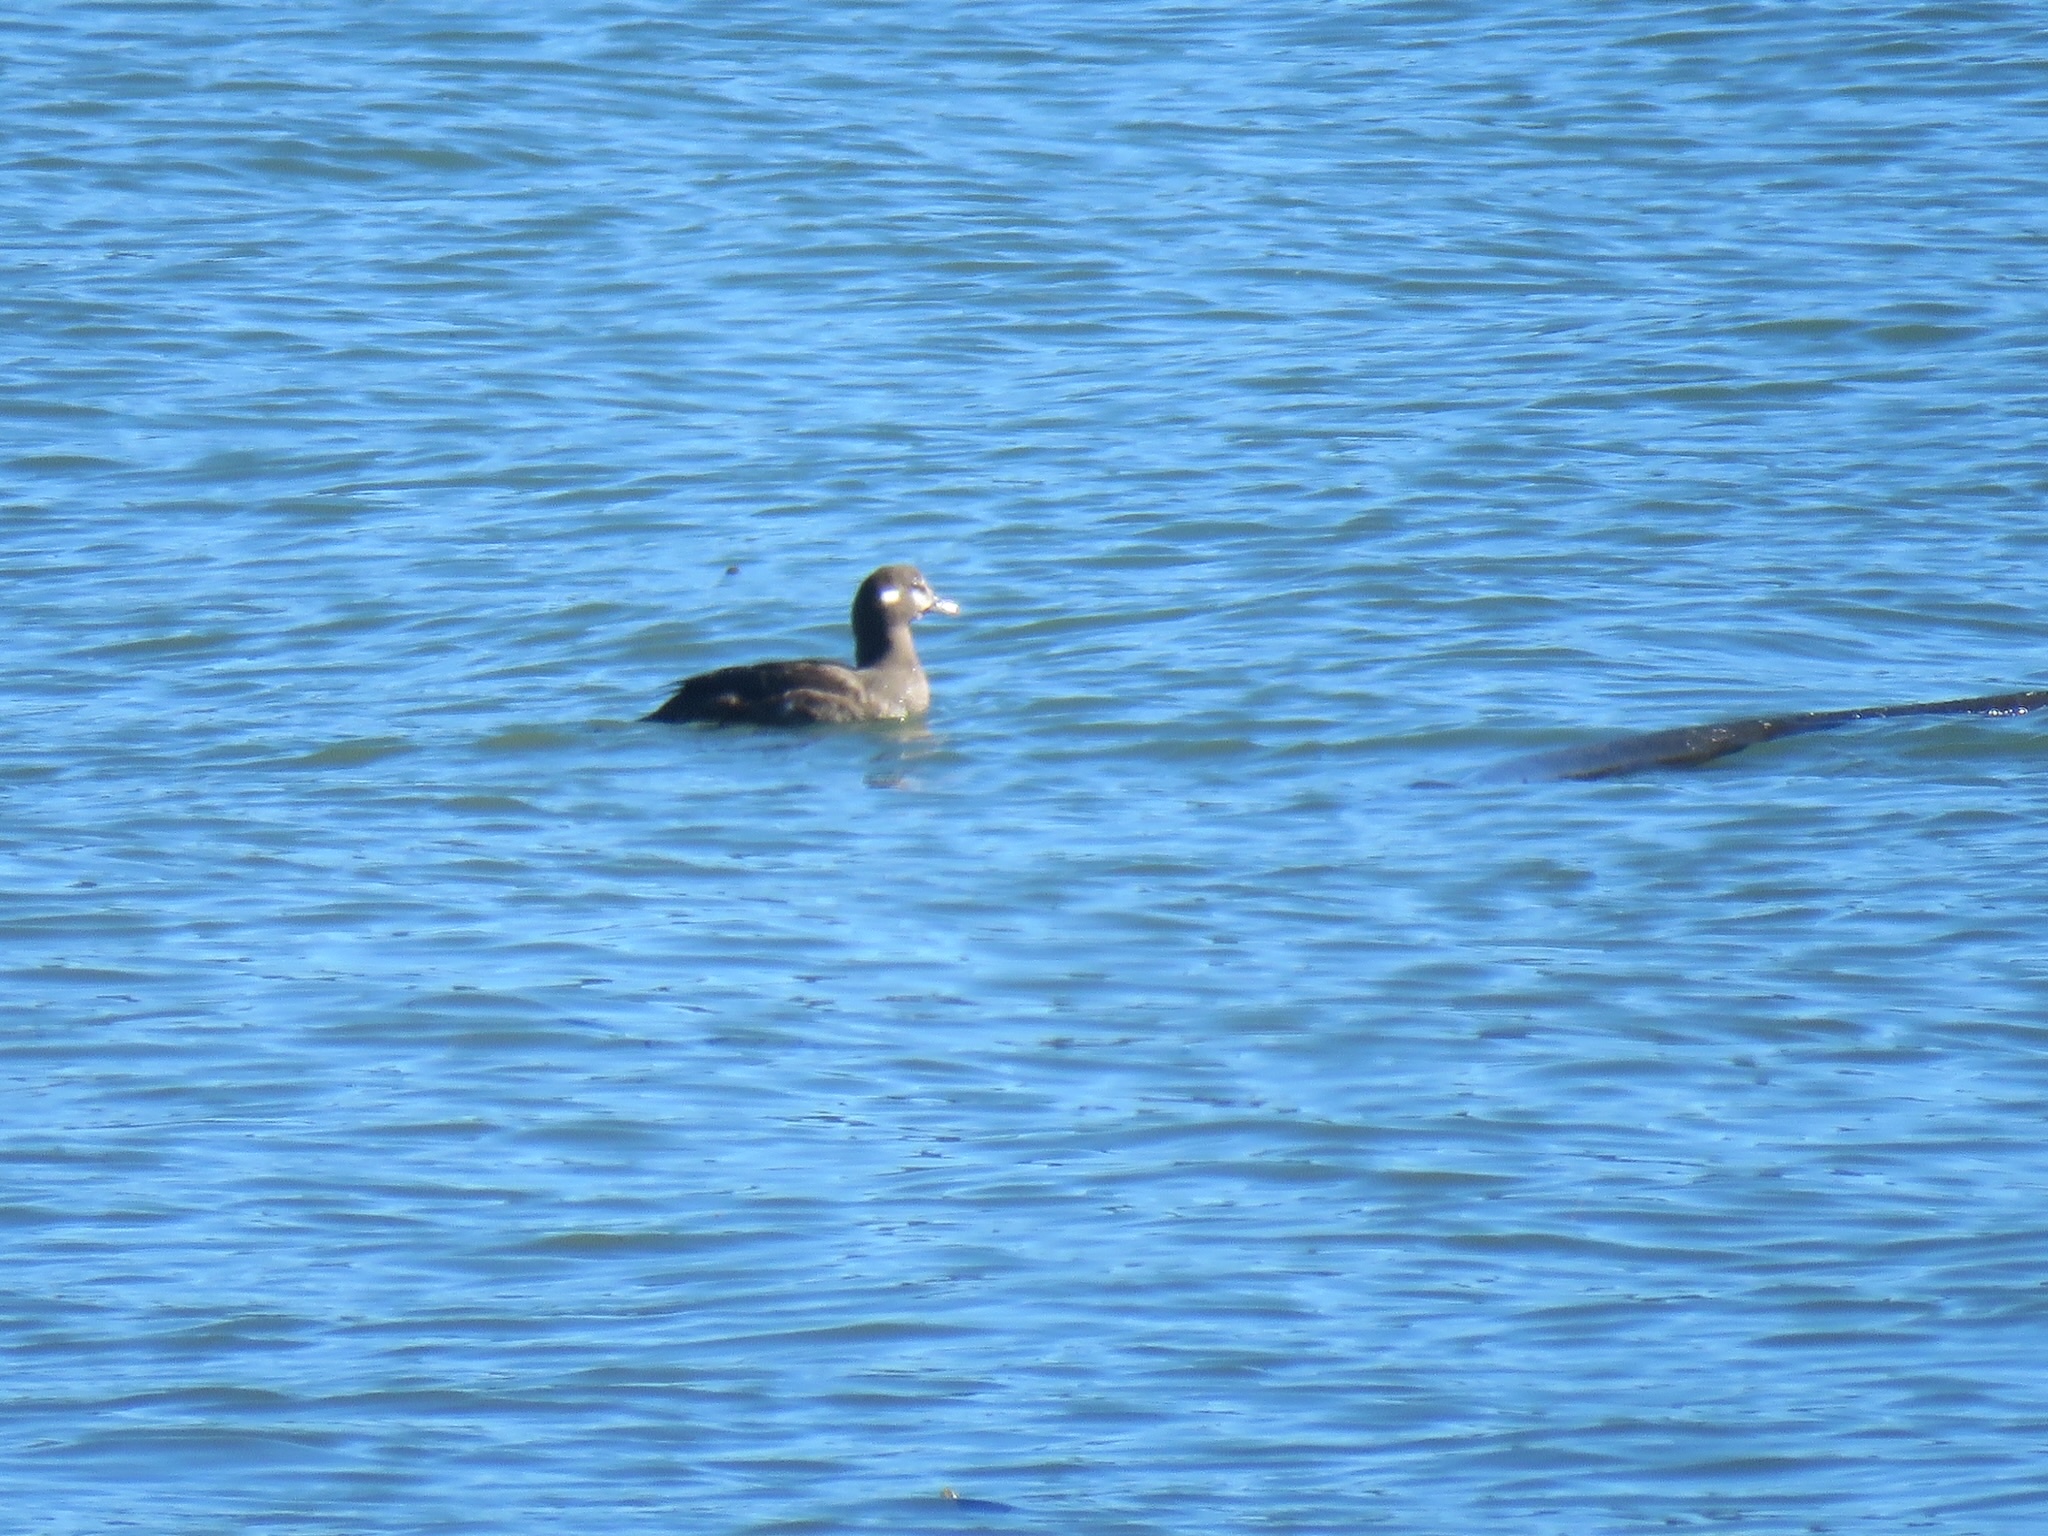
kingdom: Animalia
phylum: Chordata
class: Aves
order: Anseriformes
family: Anatidae
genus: Histrionicus
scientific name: Histrionicus histrionicus
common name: Harlequin duck
